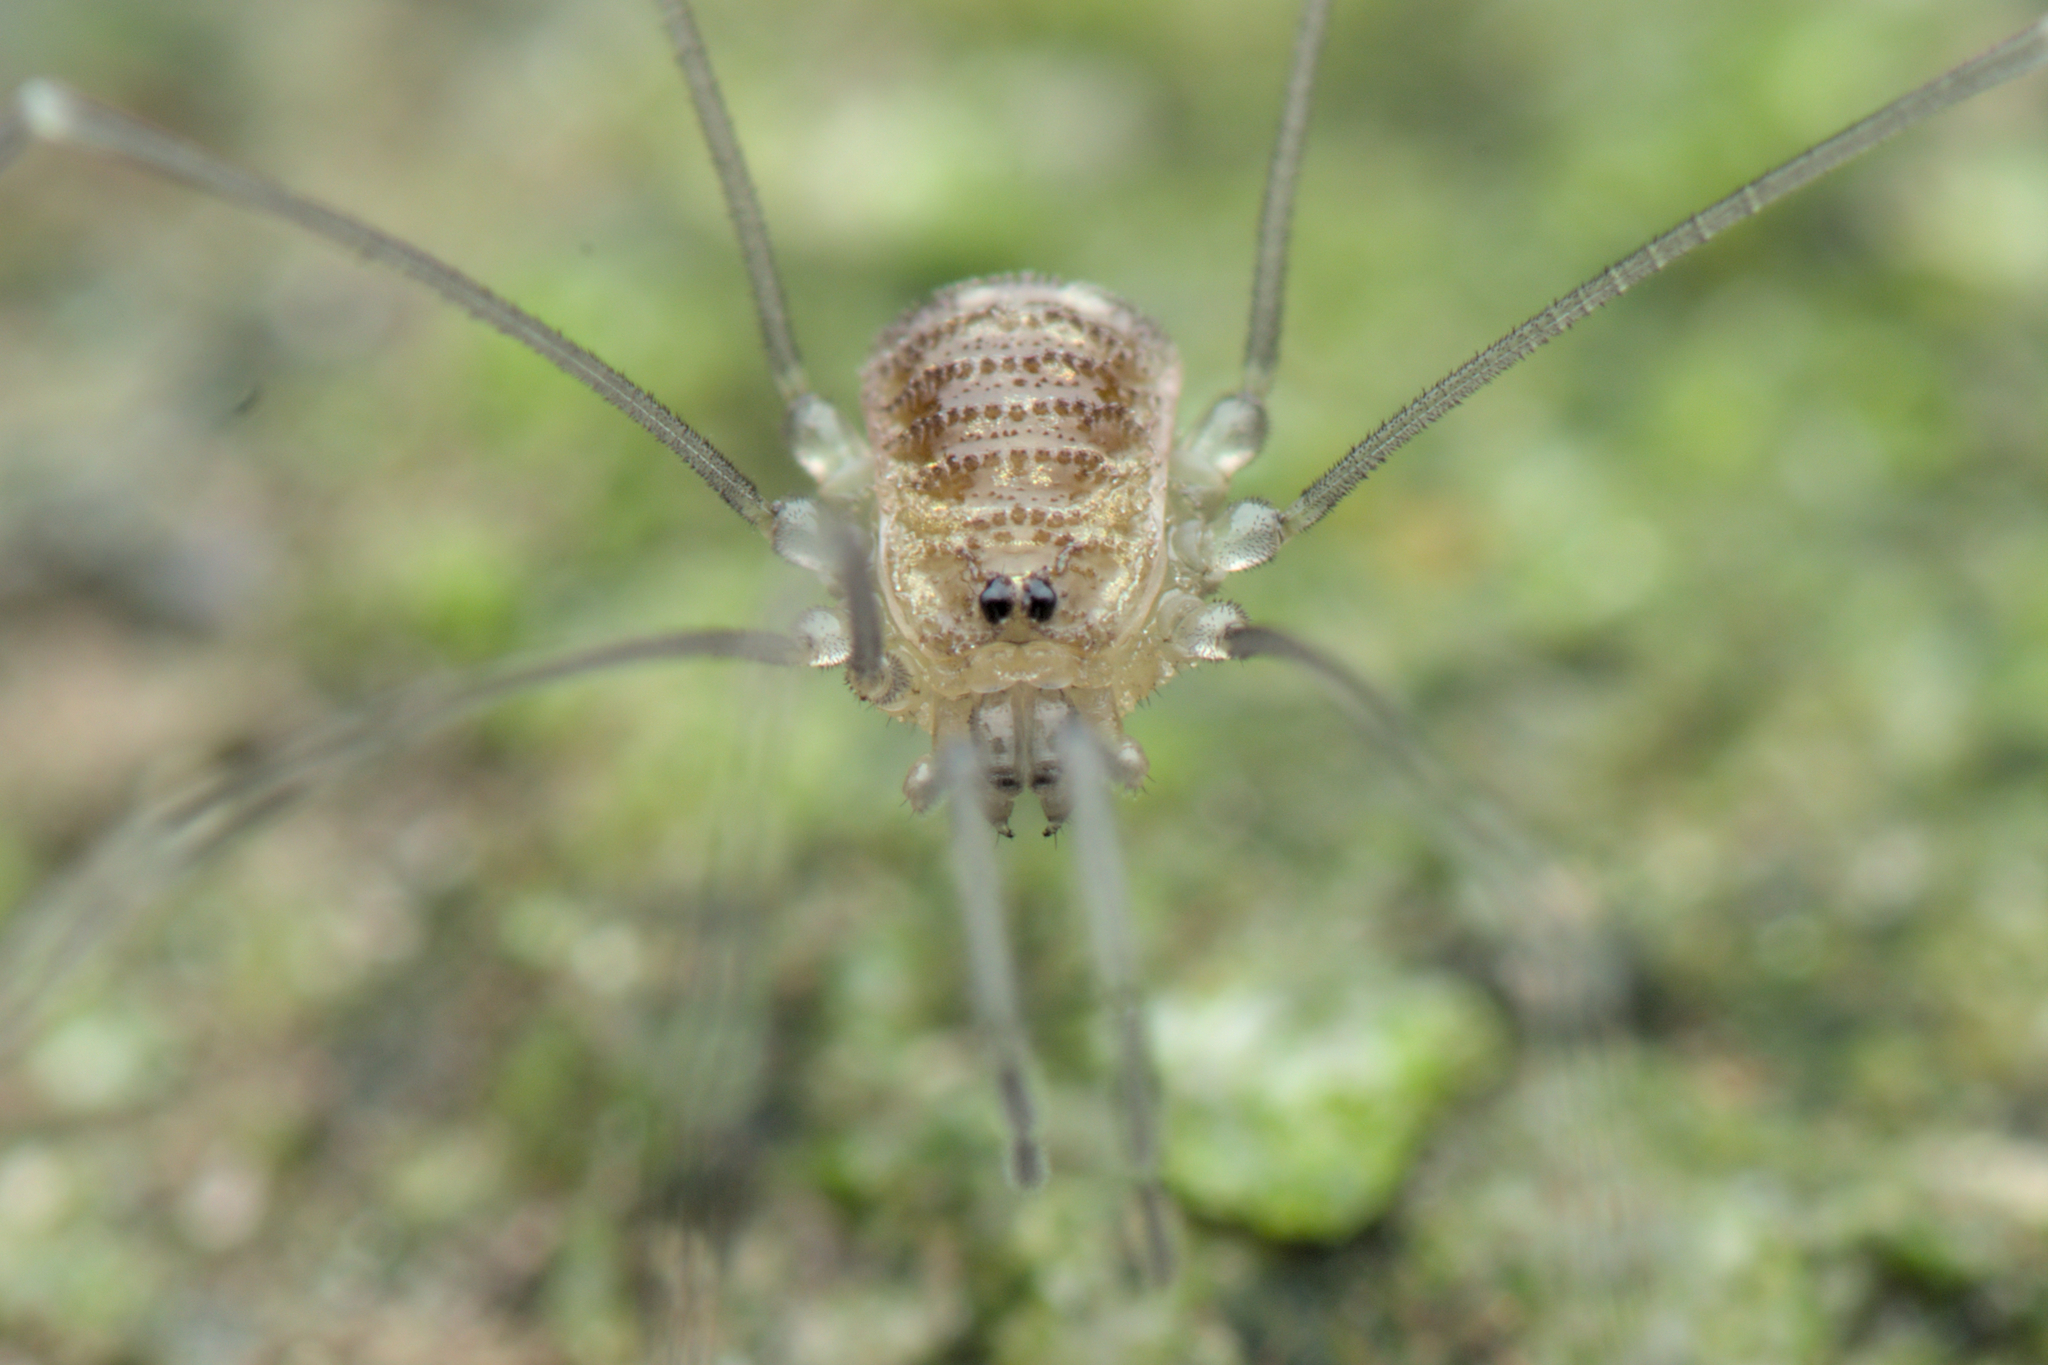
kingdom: Animalia
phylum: Arthropoda
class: Arachnida
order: Opiliones
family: Nemastomatidae
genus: Mitostoma
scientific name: Mitostoma chrysomelas
